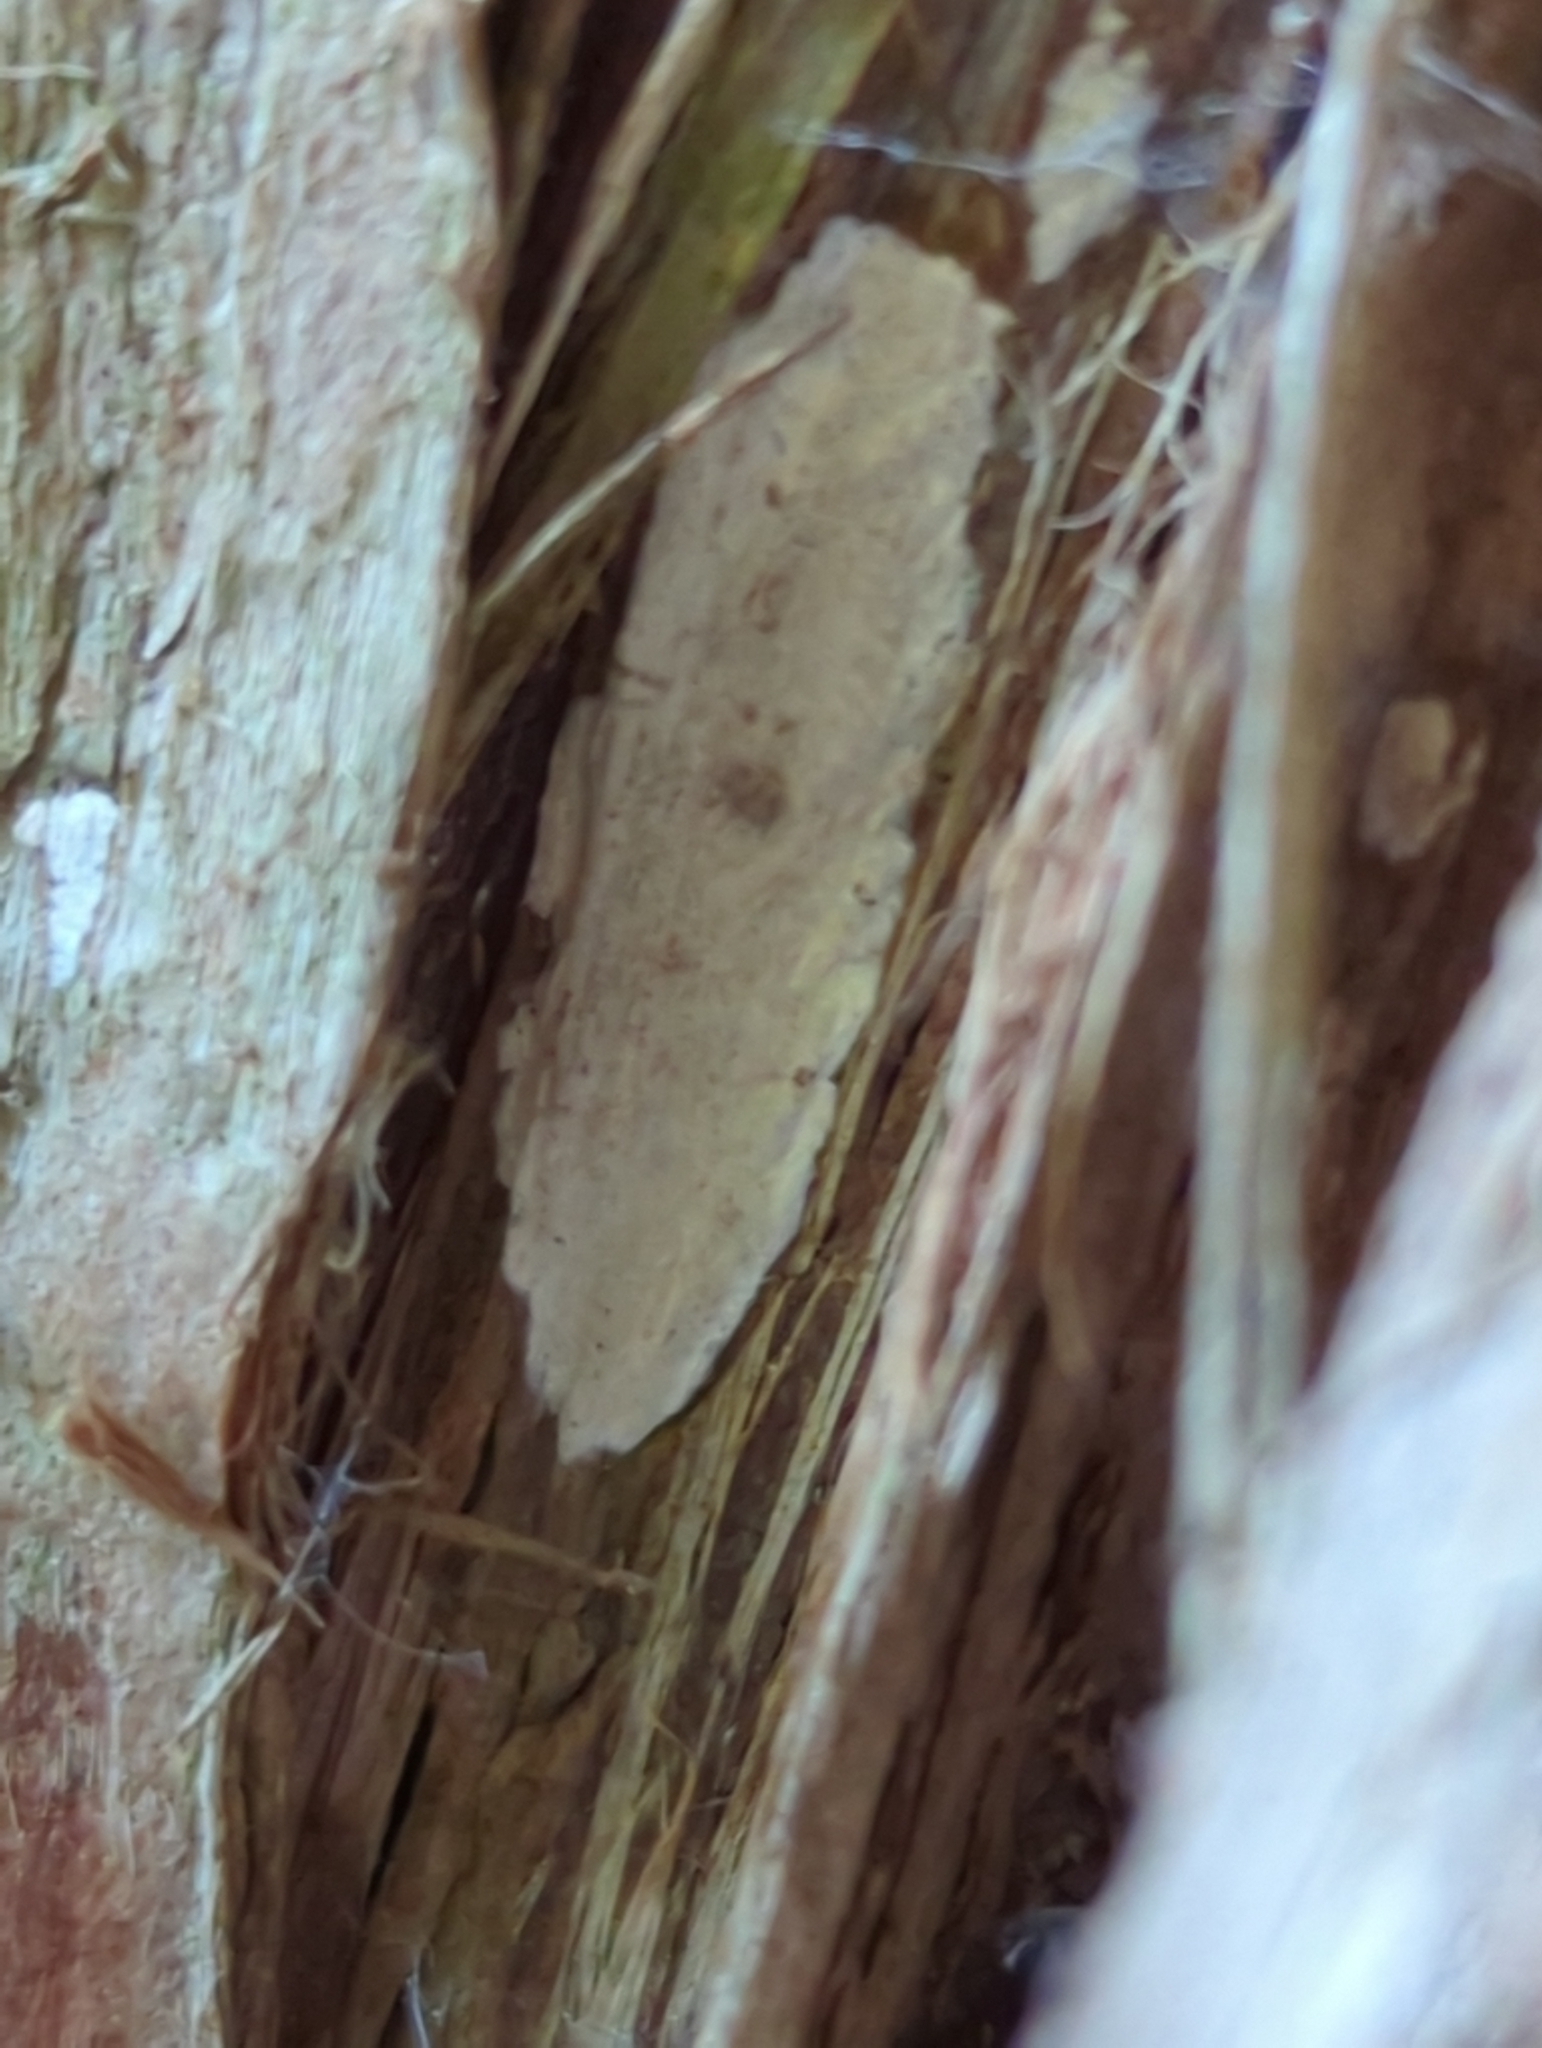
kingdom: Fungi
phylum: Basidiomycota
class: Agaricomycetes
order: Agaricales
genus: Dendrothele
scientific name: Dendrothele nivosa
